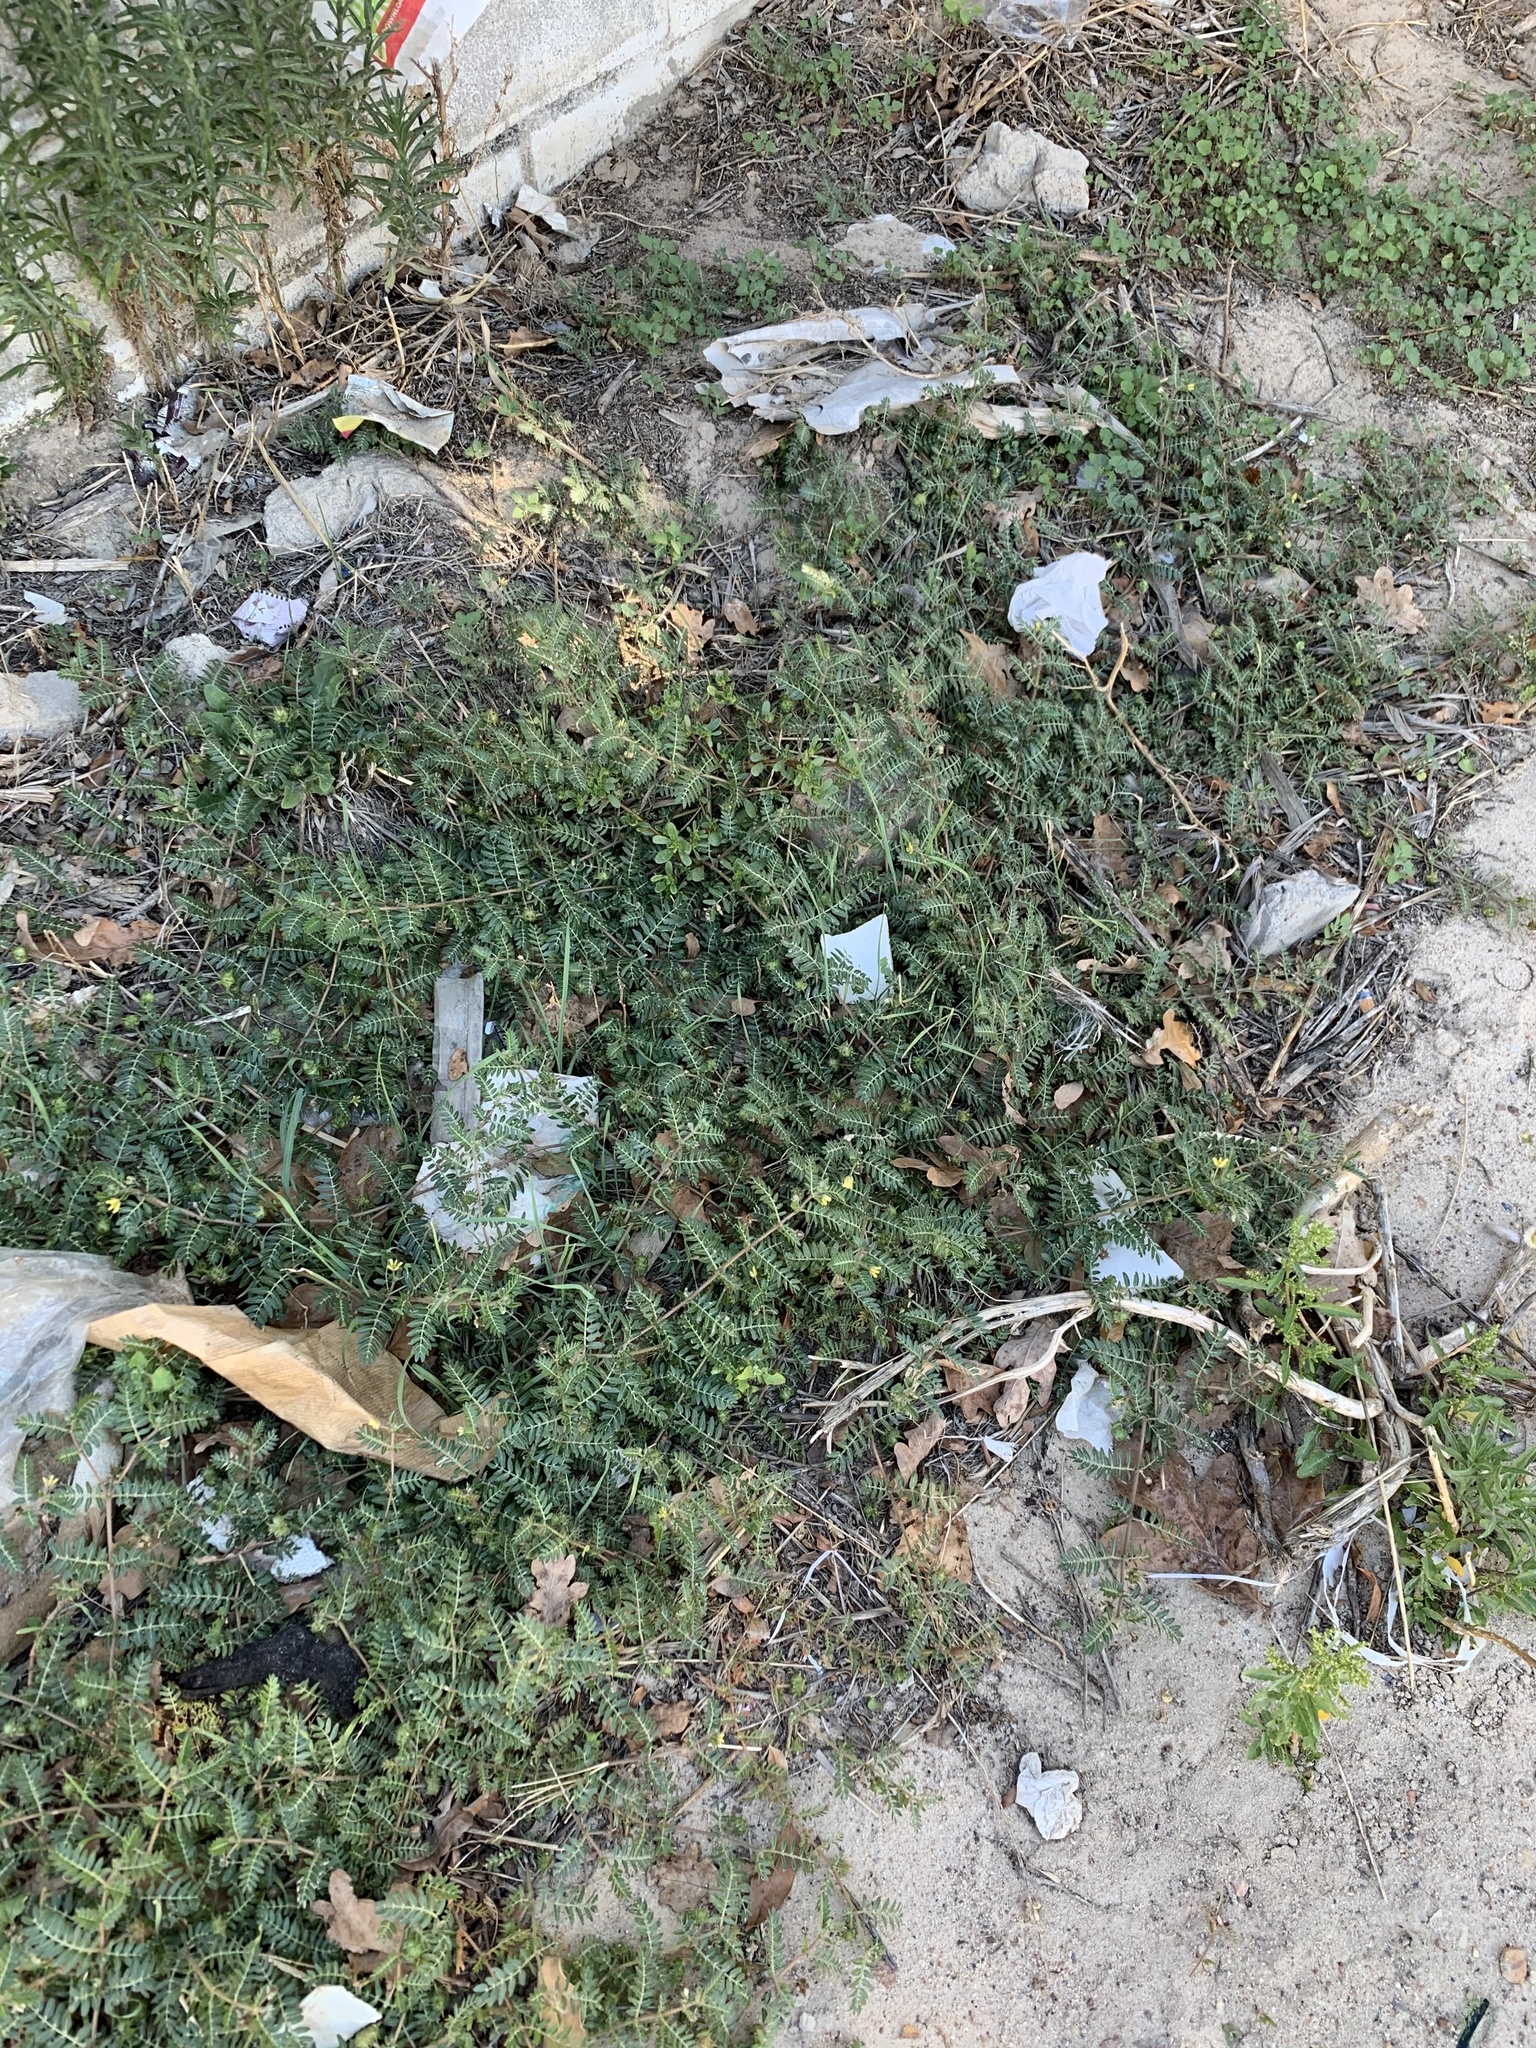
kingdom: Plantae
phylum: Tracheophyta
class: Magnoliopsida
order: Zygophyllales
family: Zygophyllaceae
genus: Tribulus
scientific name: Tribulus terrestris
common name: Puncturevine
